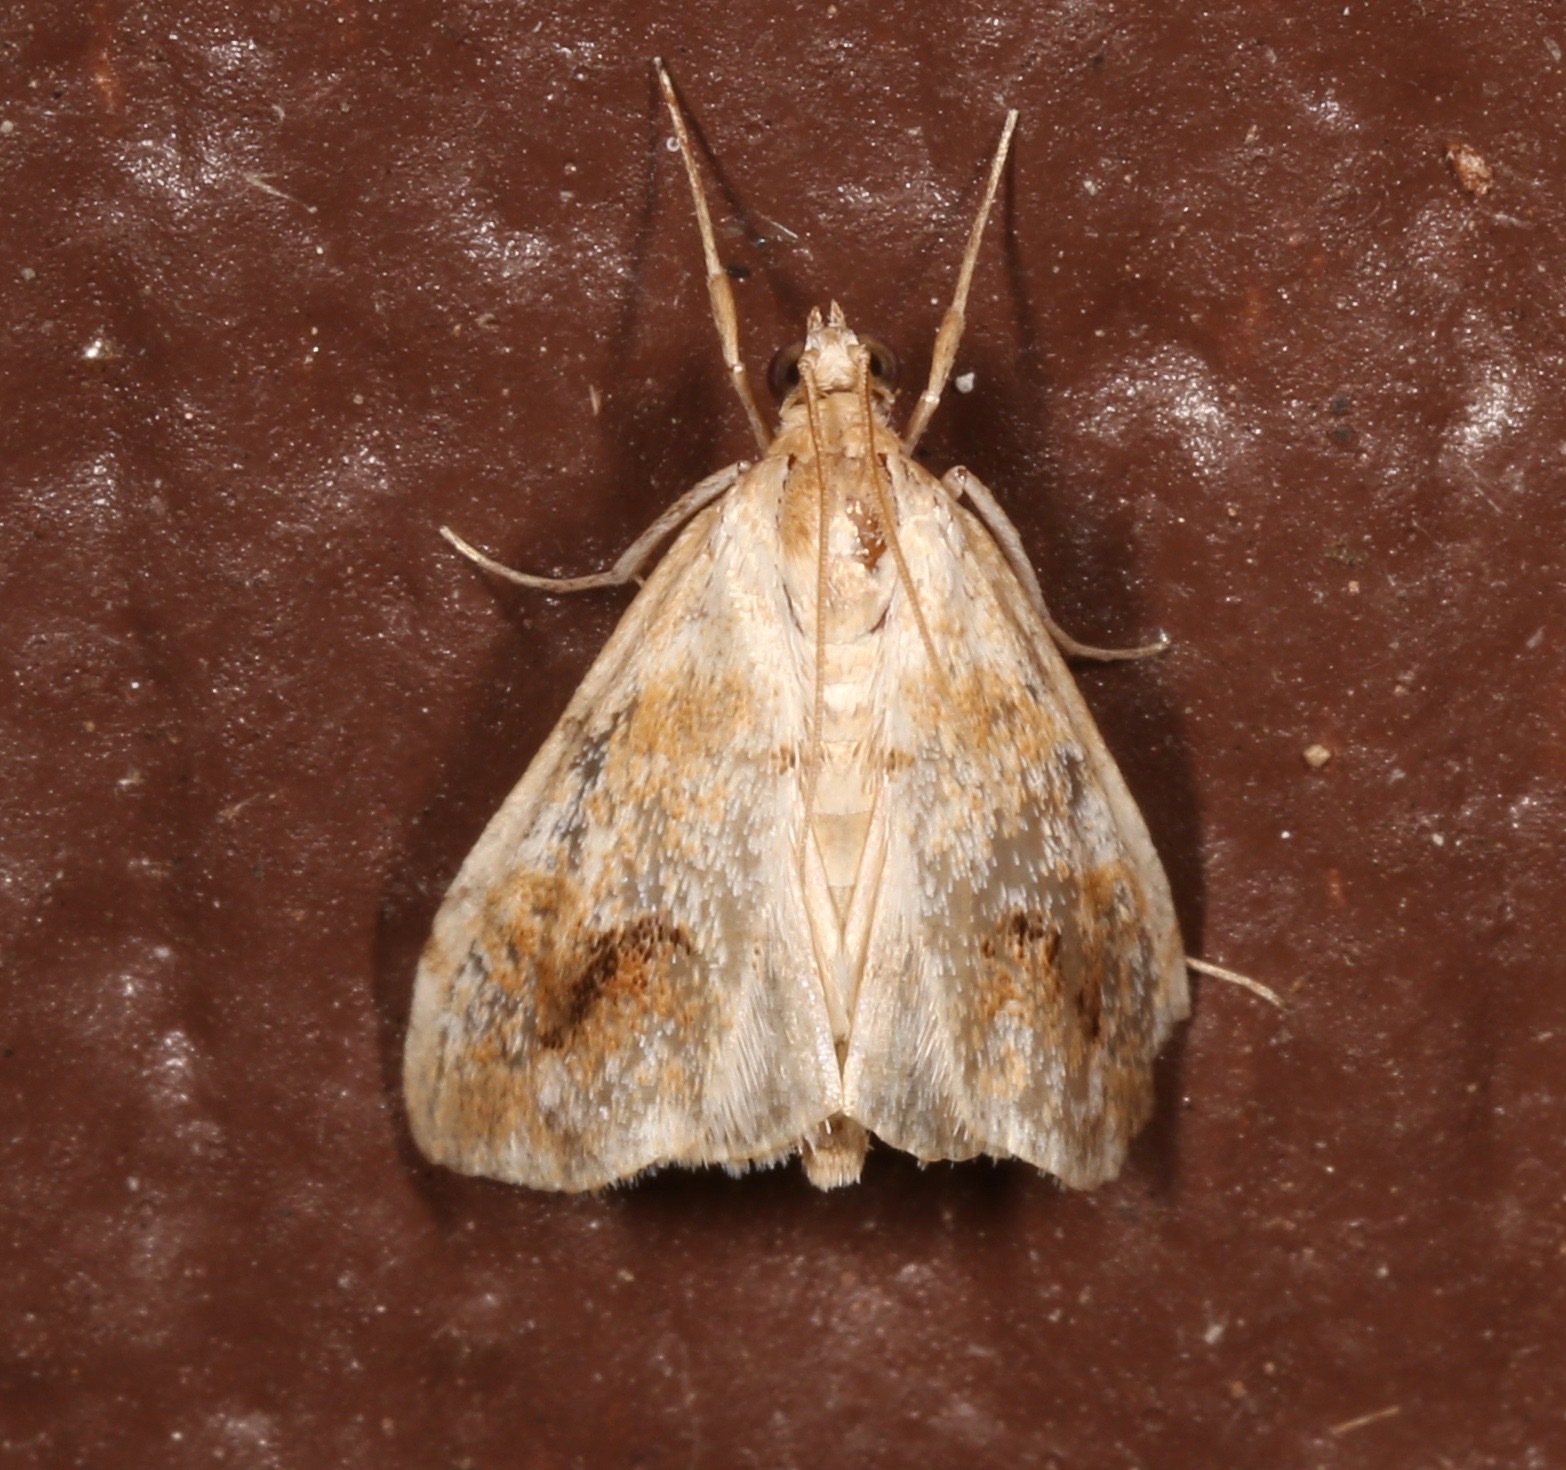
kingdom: Animalia
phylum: Arthropoda
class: Insecta
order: Lepidoptera
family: Crambidae
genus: Evergestis
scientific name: Evergestis lunulalis
